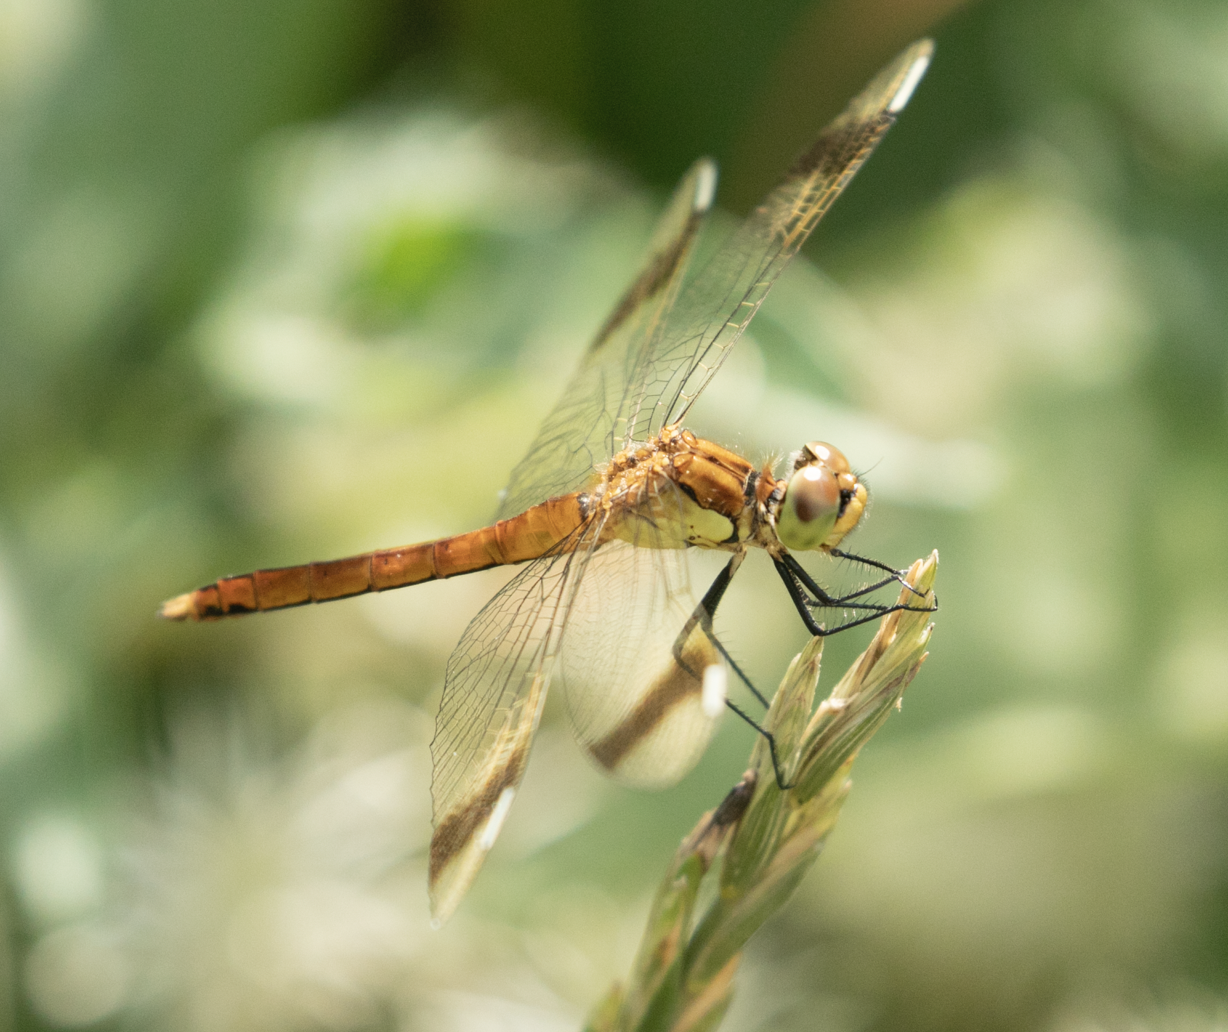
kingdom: Animalia
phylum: Arthropoda
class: Insecta
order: Odonata
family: Libellulidae
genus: Sympetrum
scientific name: Sympetrum pedemontanum
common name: Banded darter
